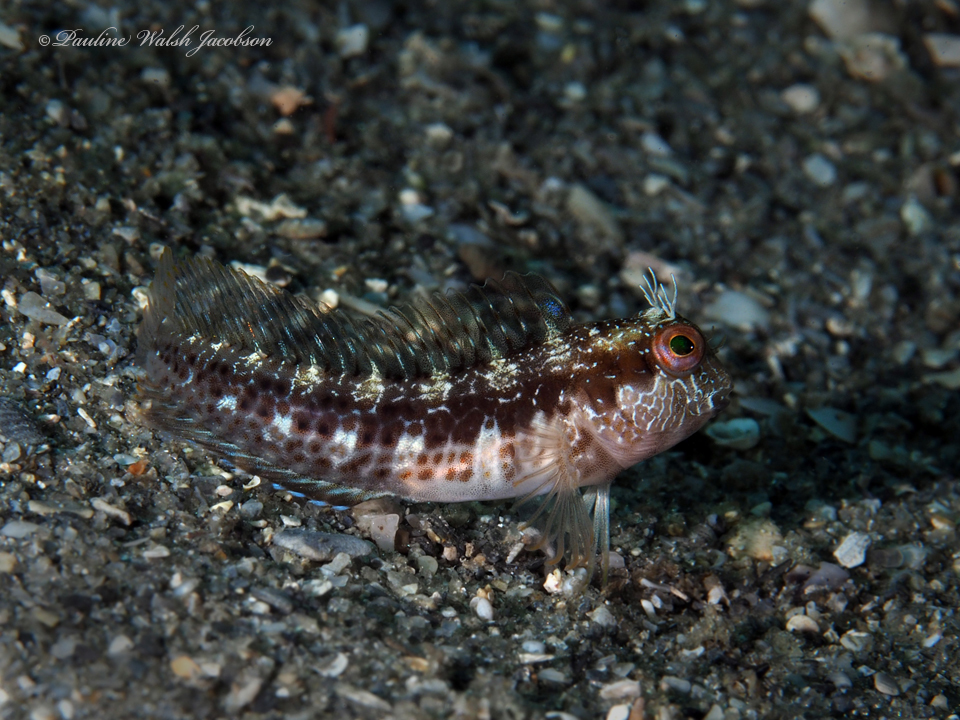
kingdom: Animalia
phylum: Chordata
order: Perciformes
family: Blenniidae
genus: Parablennius
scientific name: Parablennius marmoreus
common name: Seaweed blenny
